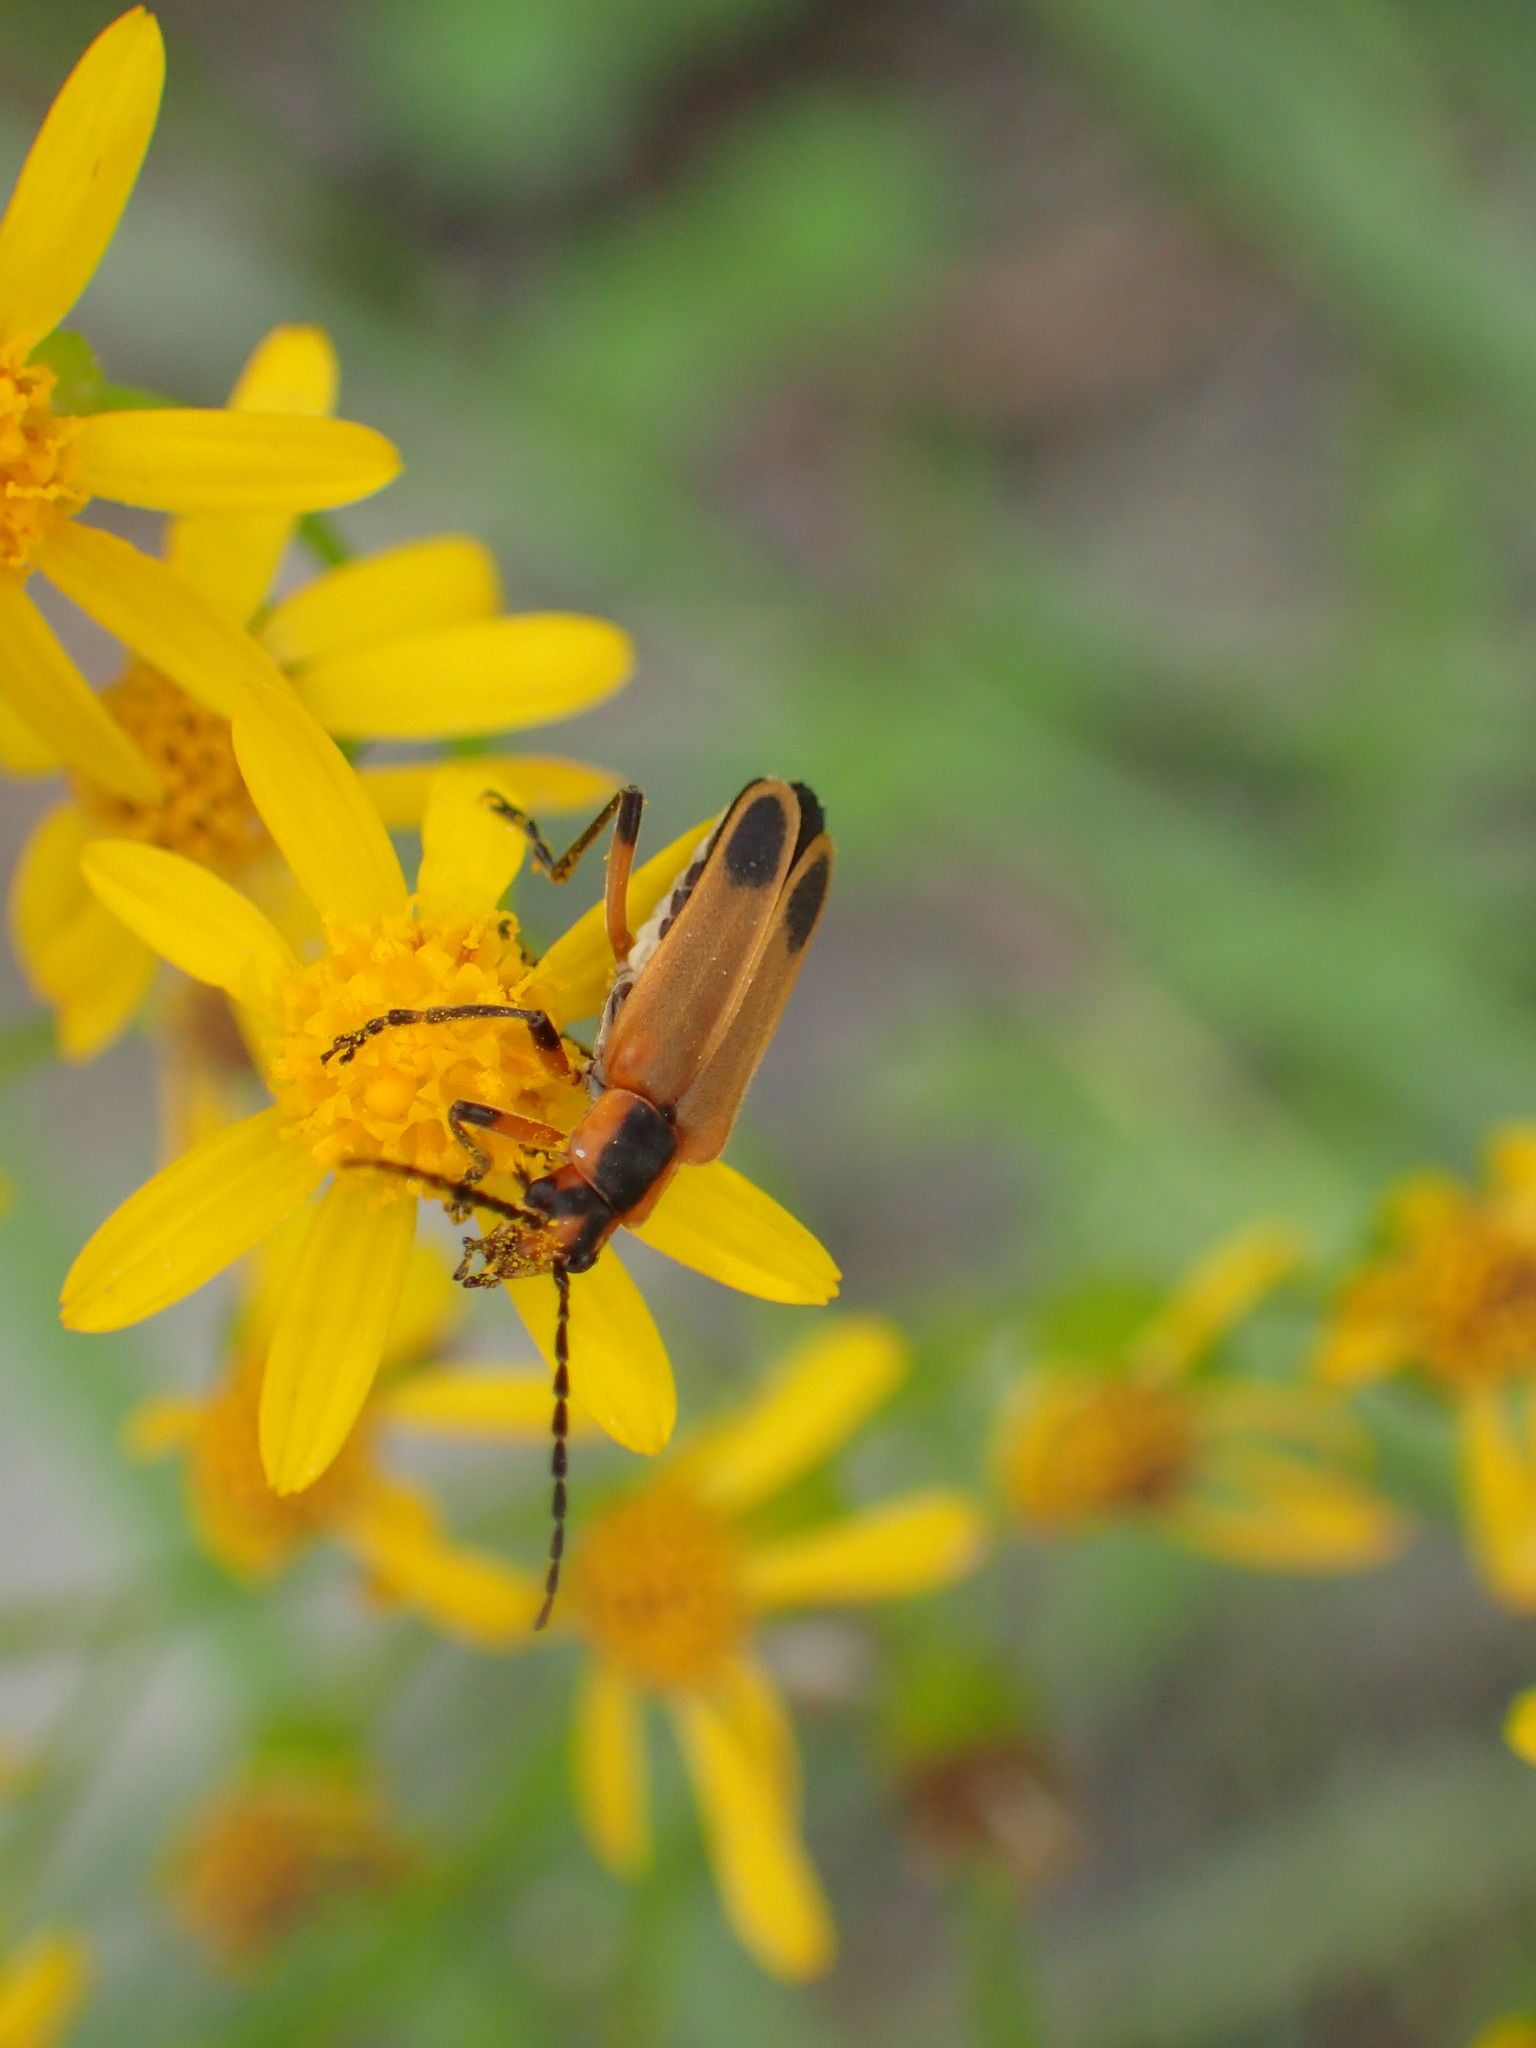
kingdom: Animalia
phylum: Arthropoda
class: Insecta
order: Coleoptera
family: Cantharidae
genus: Chauliognathus
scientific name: Chauliognathus marginatus
